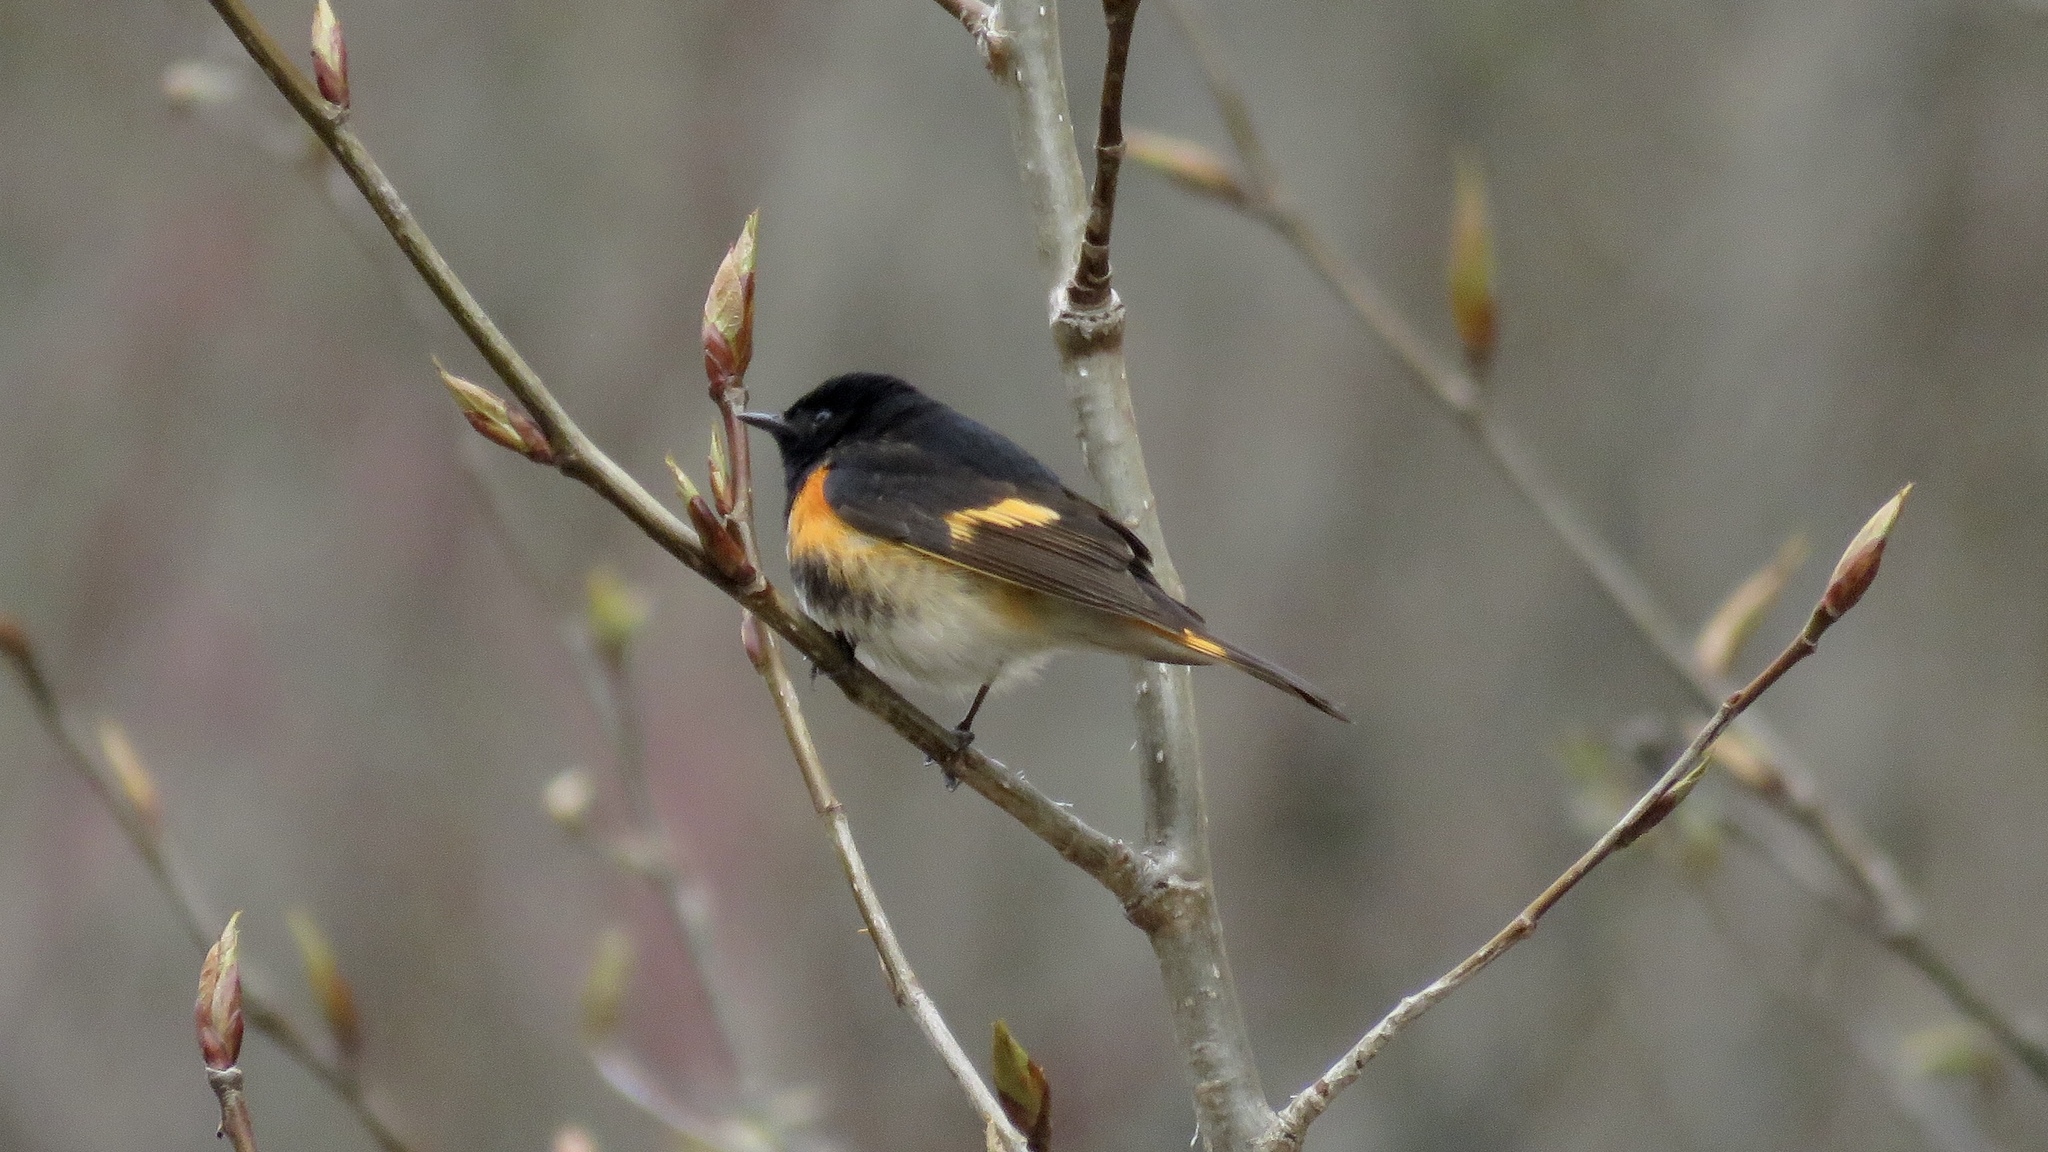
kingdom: Animalia
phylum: Chordata
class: Aves
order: Passeriformes
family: Parulidae
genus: Setophaga
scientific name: Setophaga ruticilla
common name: American redstart
